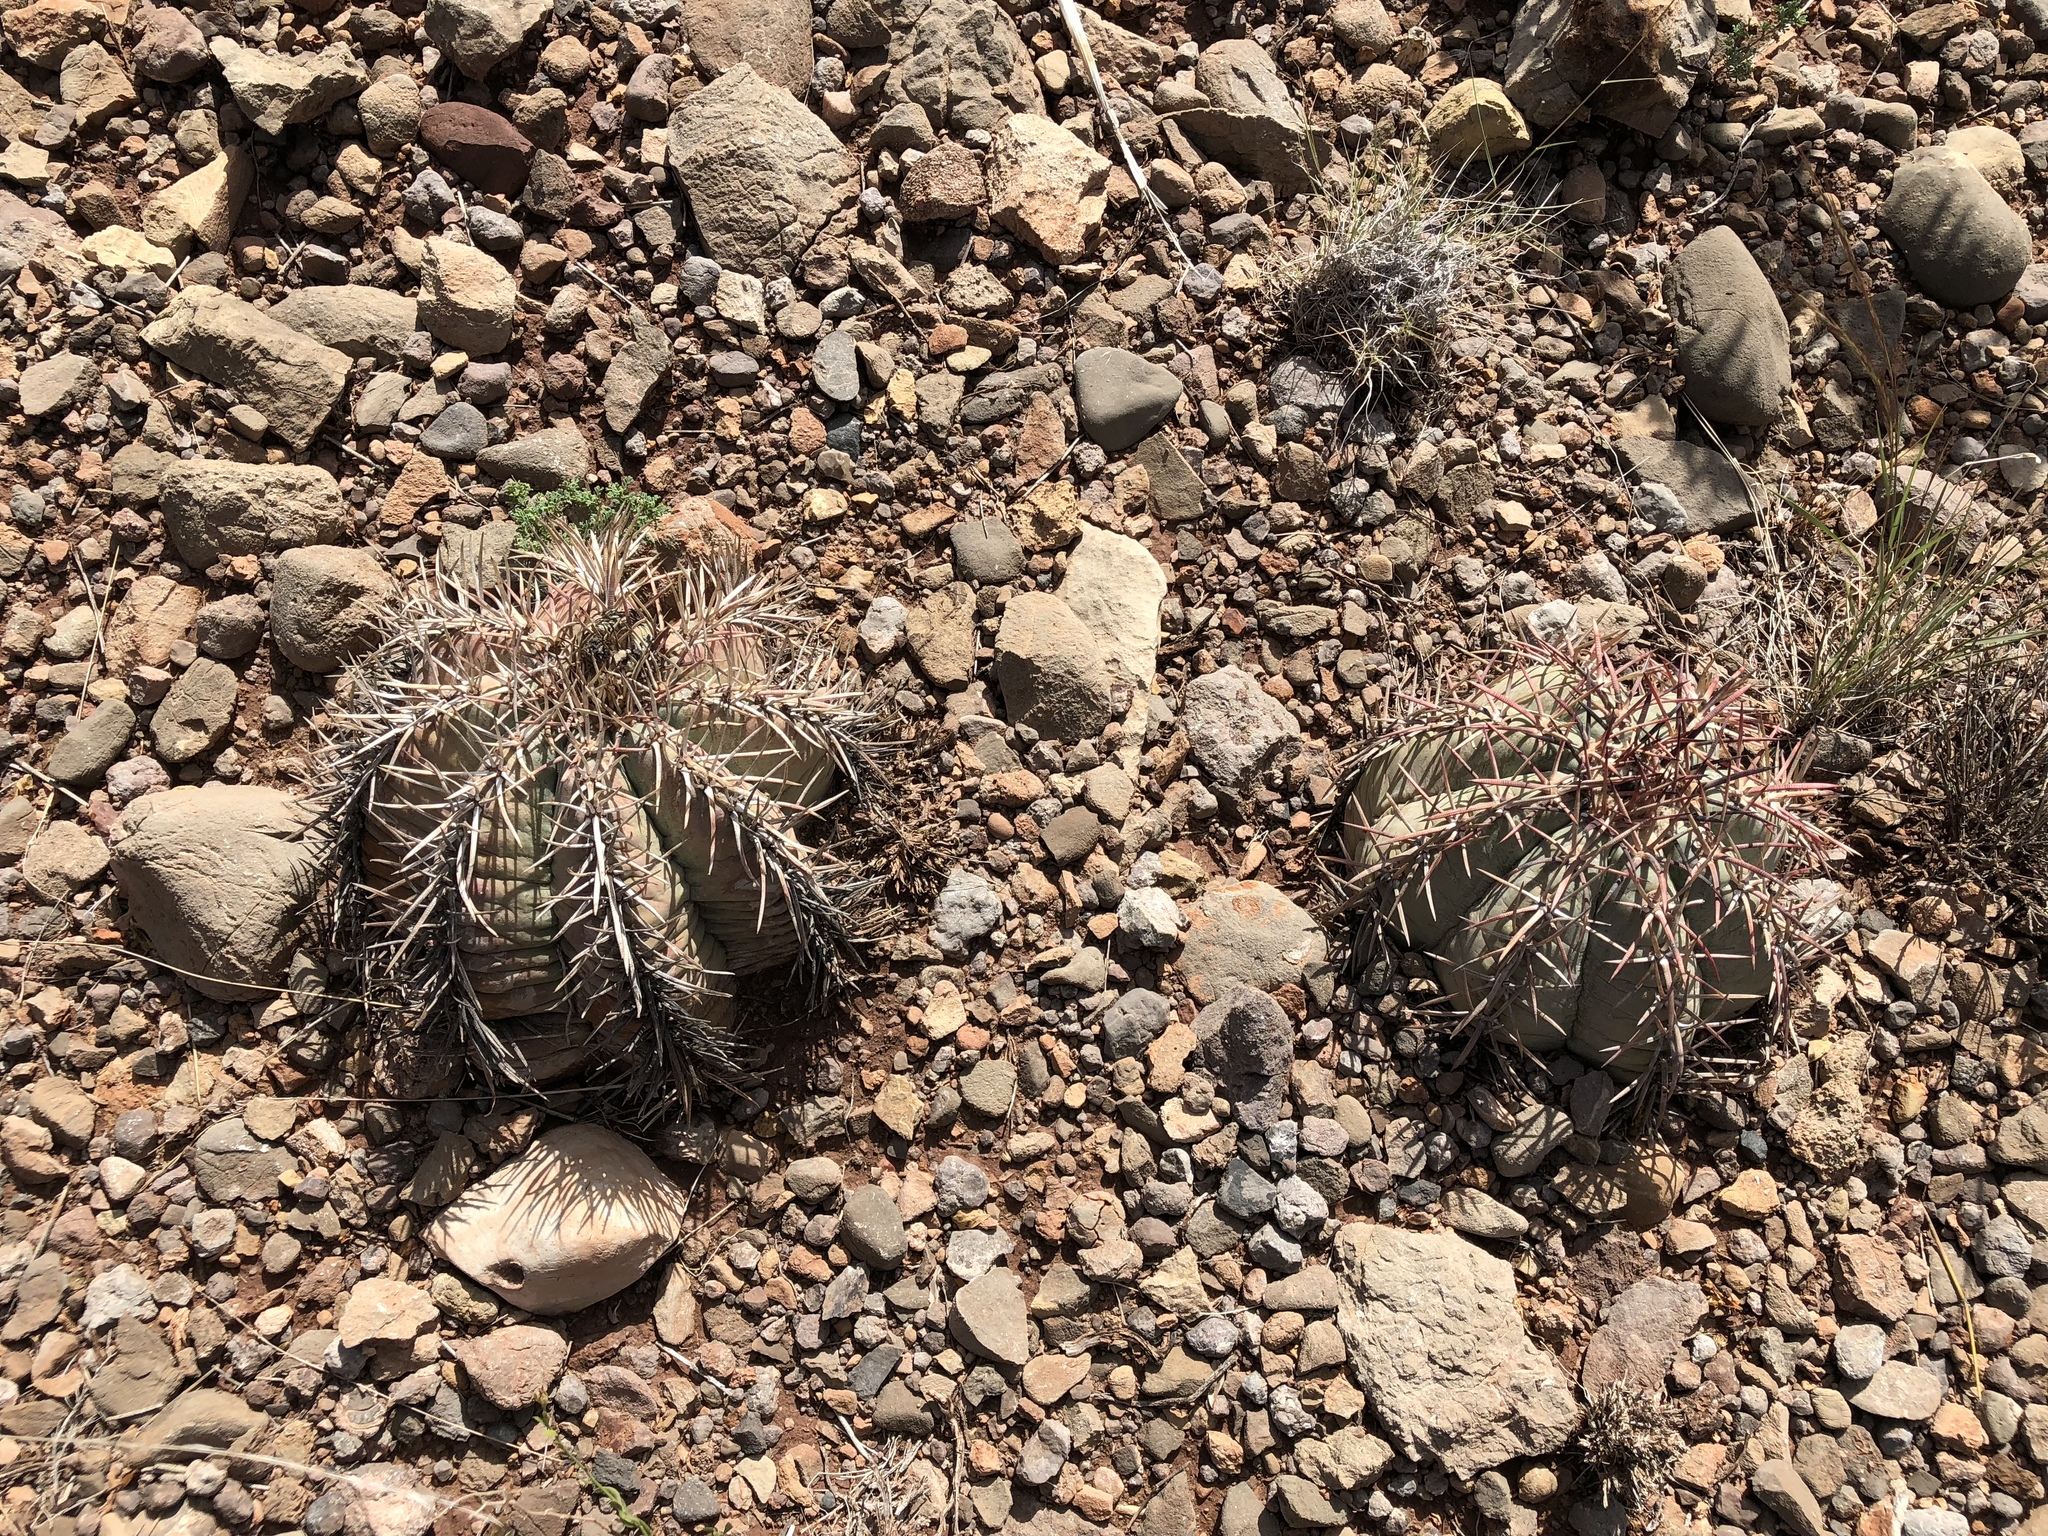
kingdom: Plantae
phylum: Tracheophyta
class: Magnoliopsida
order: Caryophyllales
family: Cactaceae
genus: Echinocactus
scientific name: Echinocactus horizonthalonius
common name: Devilshead
